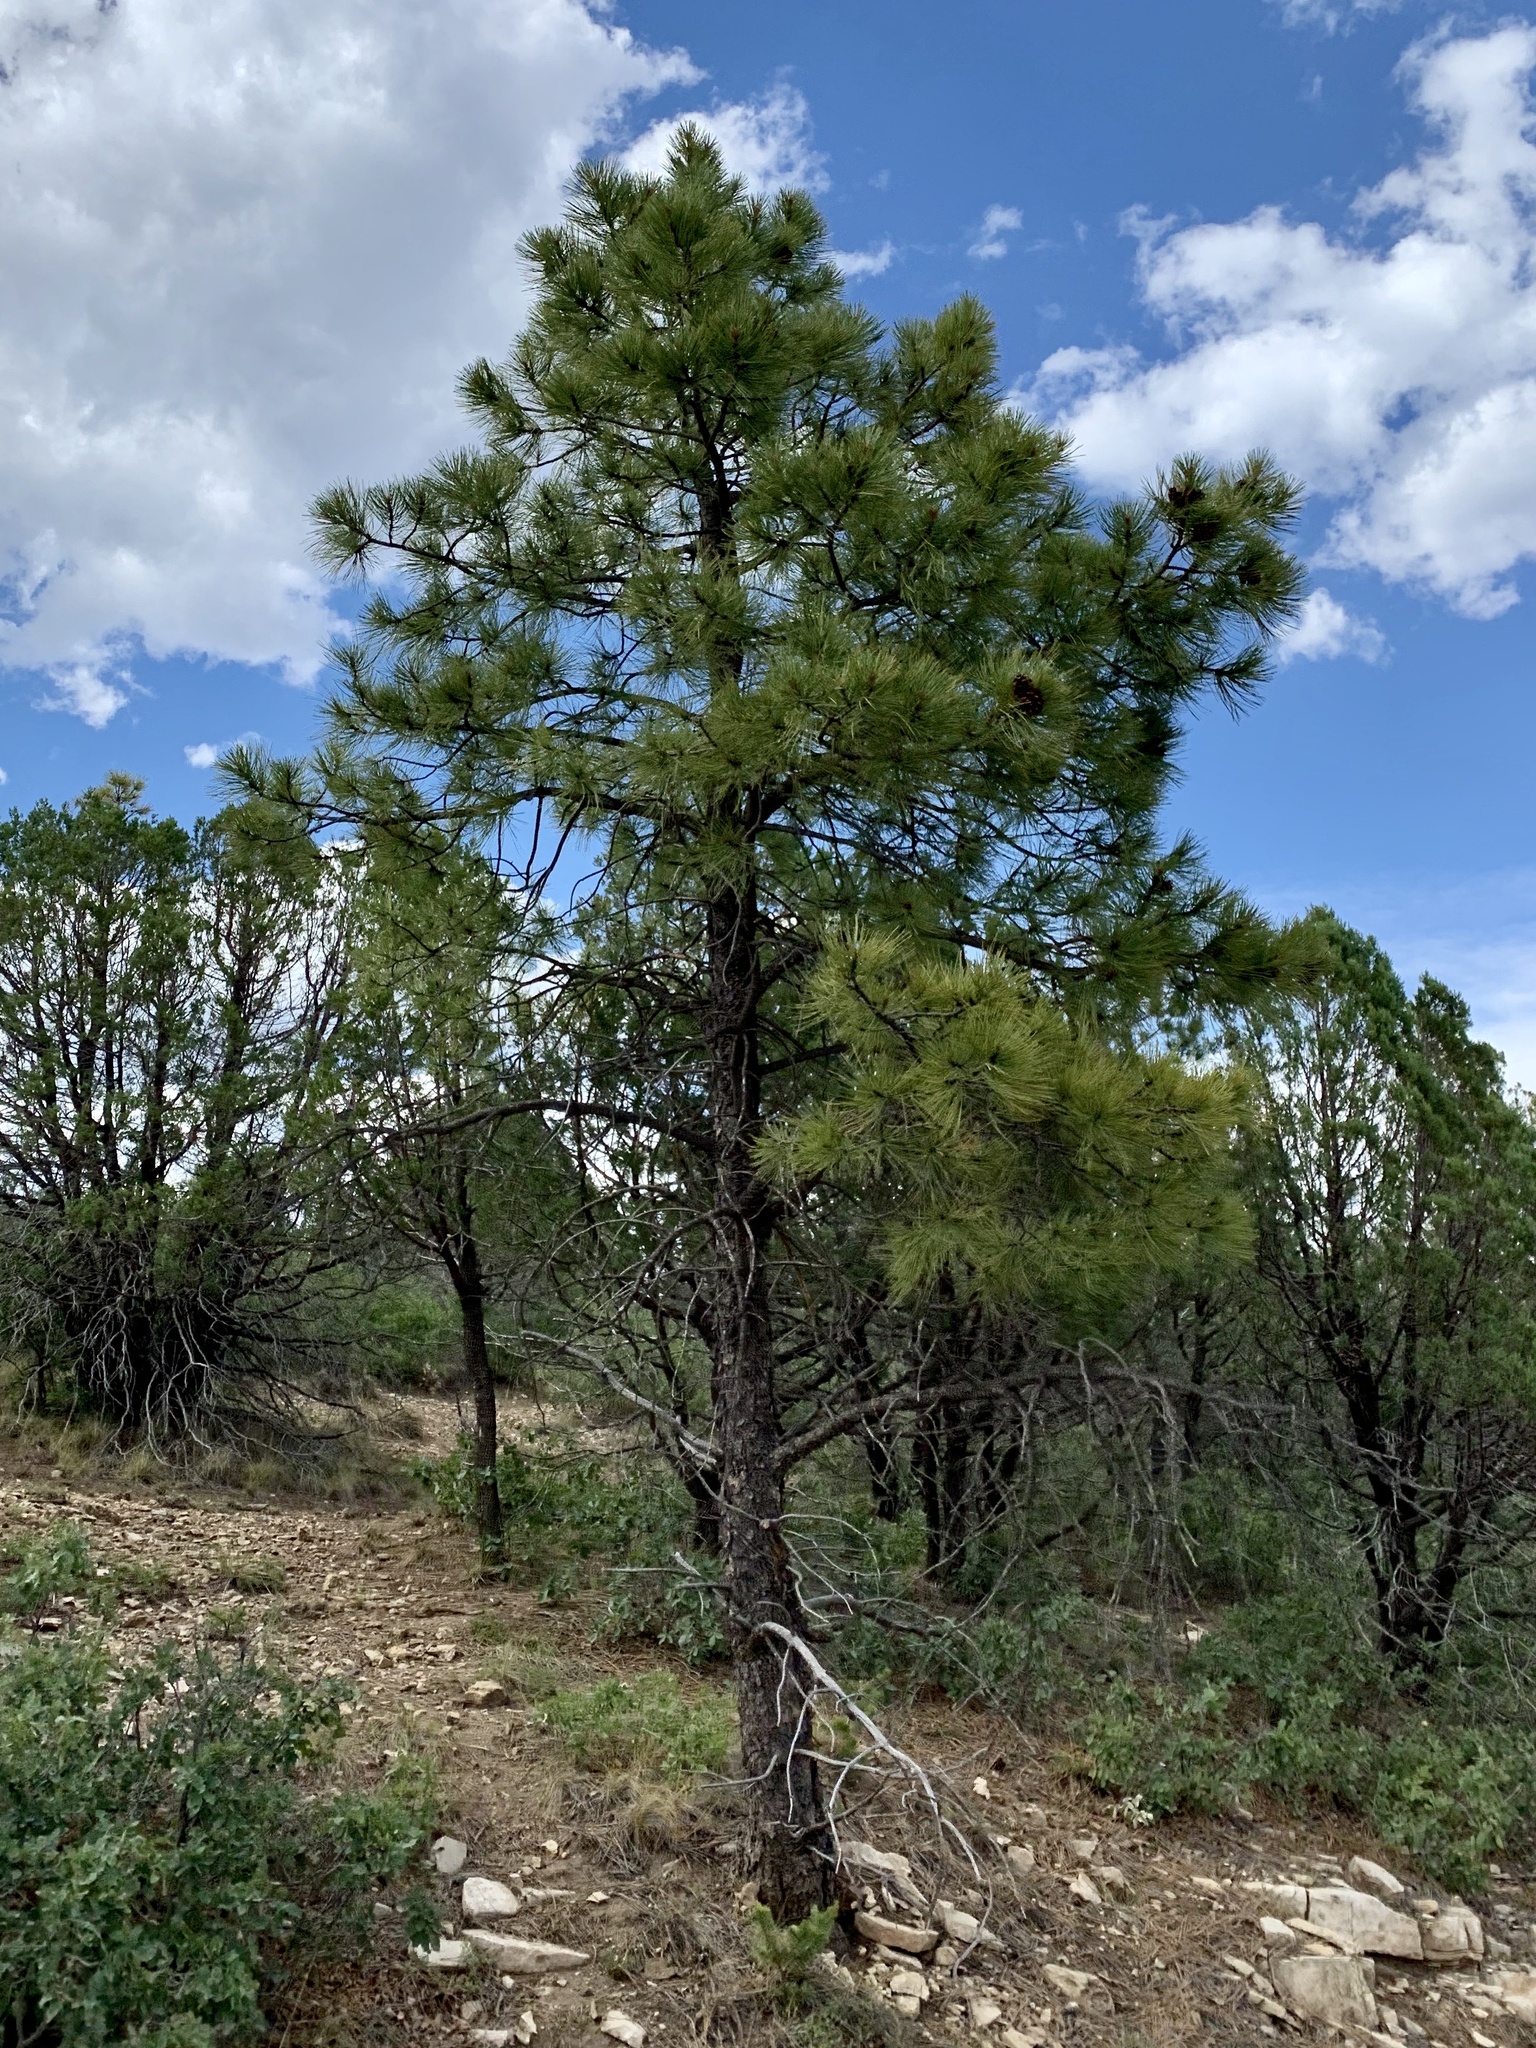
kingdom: Plantae
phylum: Tracheophyta
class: Pinopsida
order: Pinales
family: Pinaceae
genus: Pinus
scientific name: Pinus ponderosa
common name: Western yellow-pine
